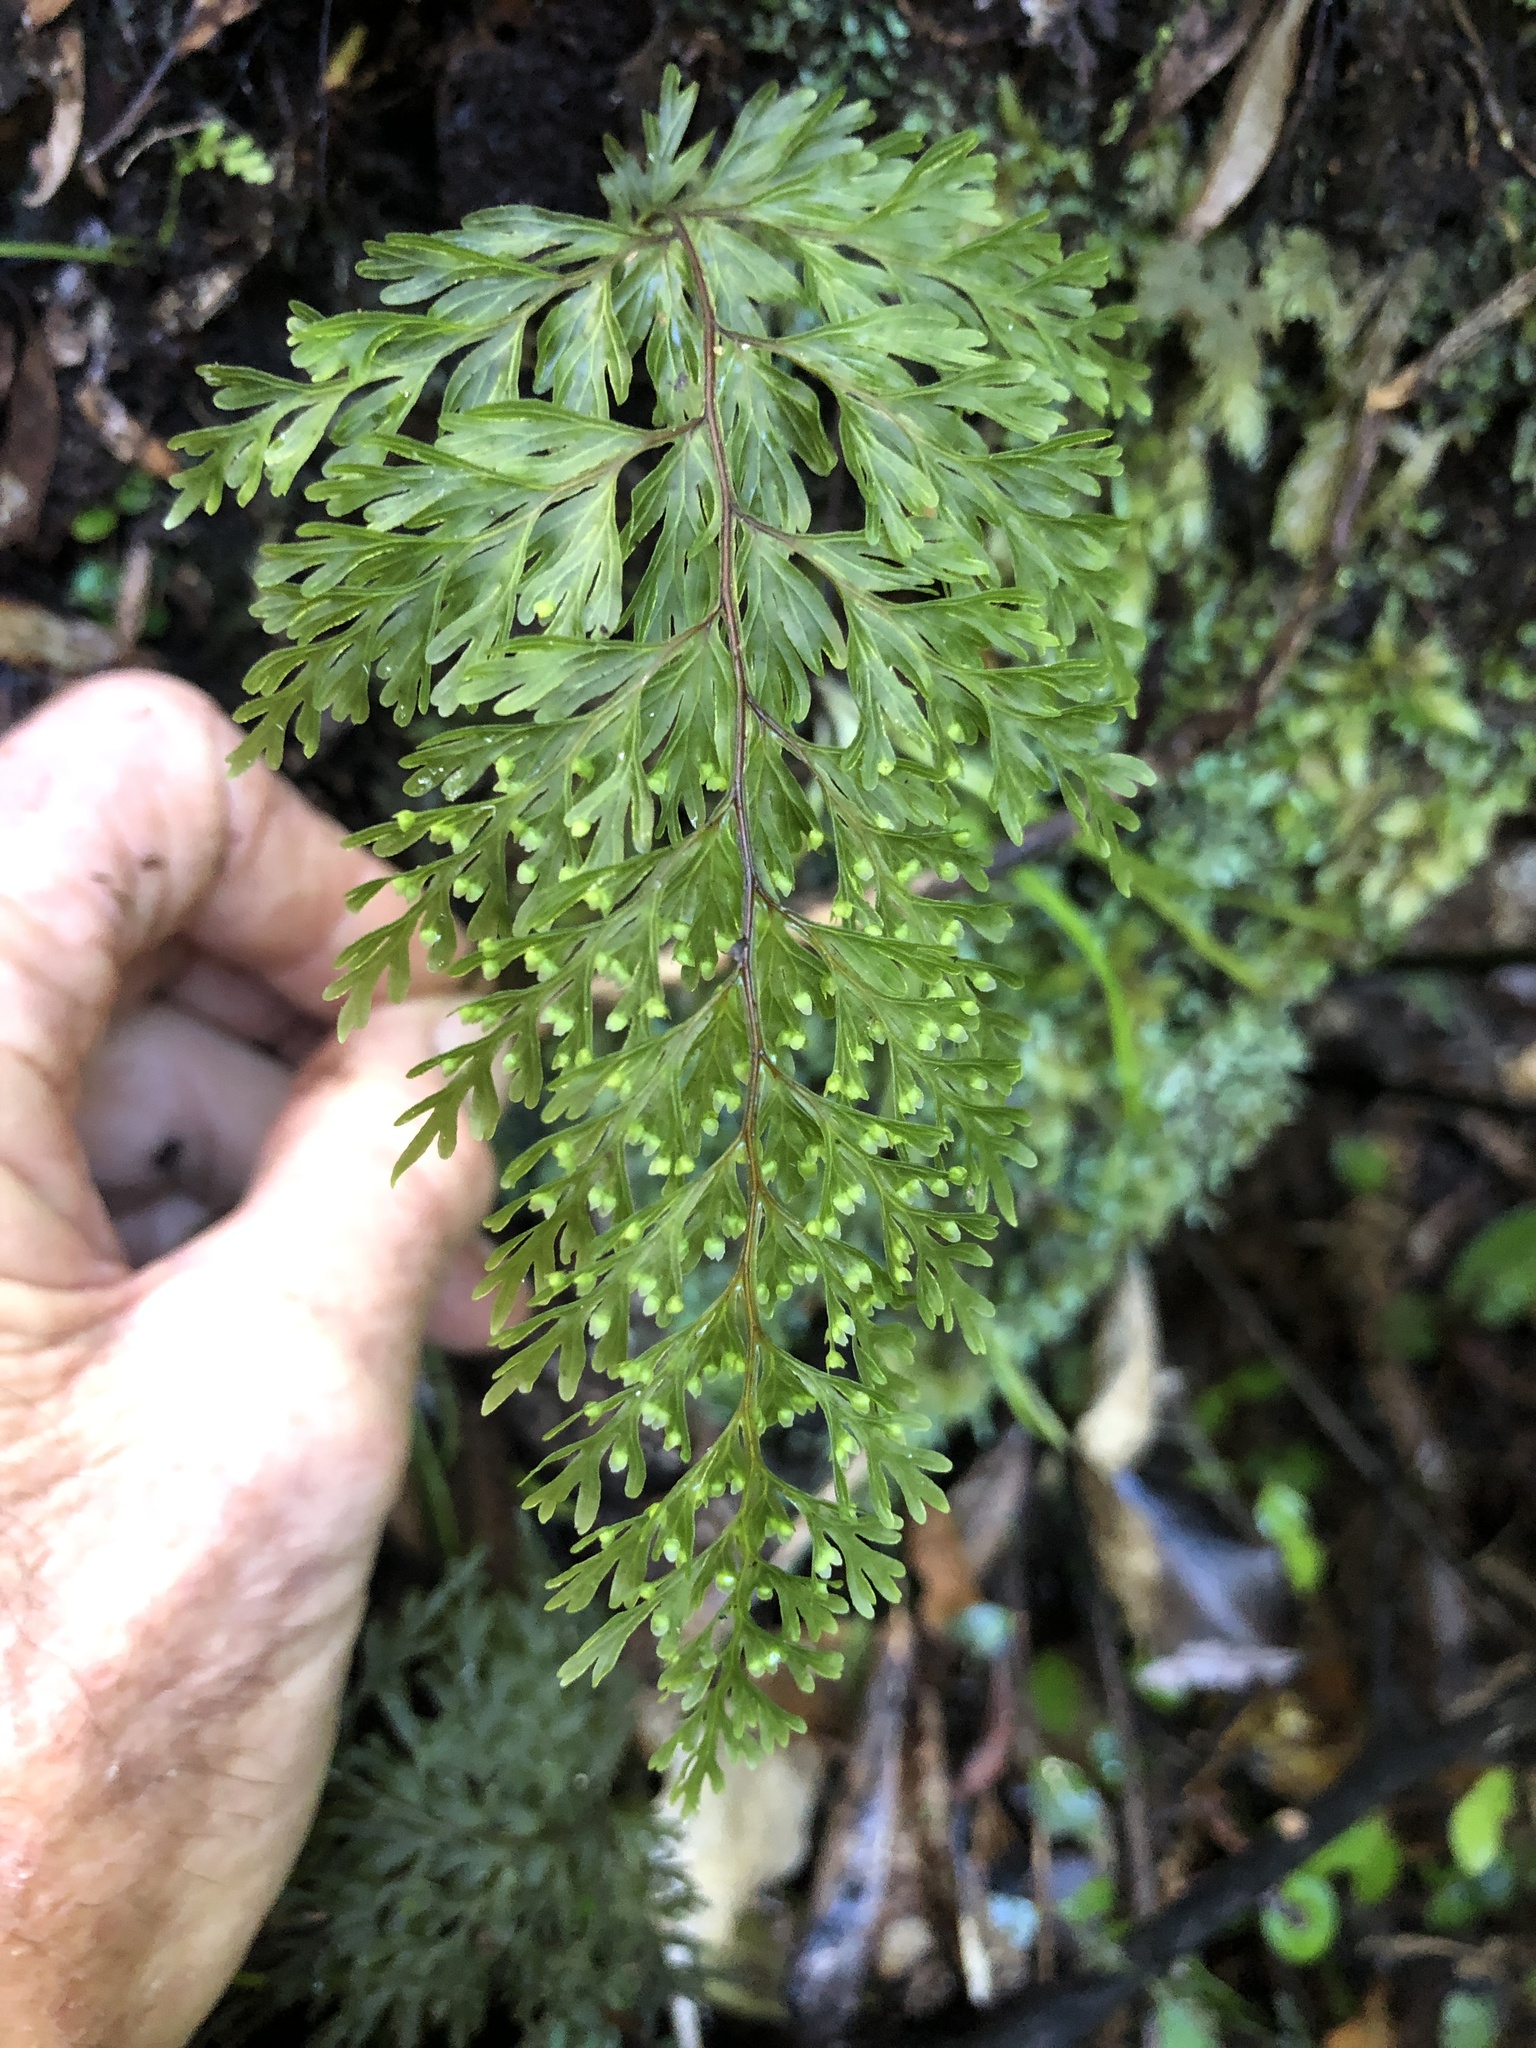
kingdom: Plantae
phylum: Tracheophyta
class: Polypodiopsida
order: Hymenophyllales
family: Hymenophyllaceae
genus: Hymenophyllum
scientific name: Hymenophyllum demissum
